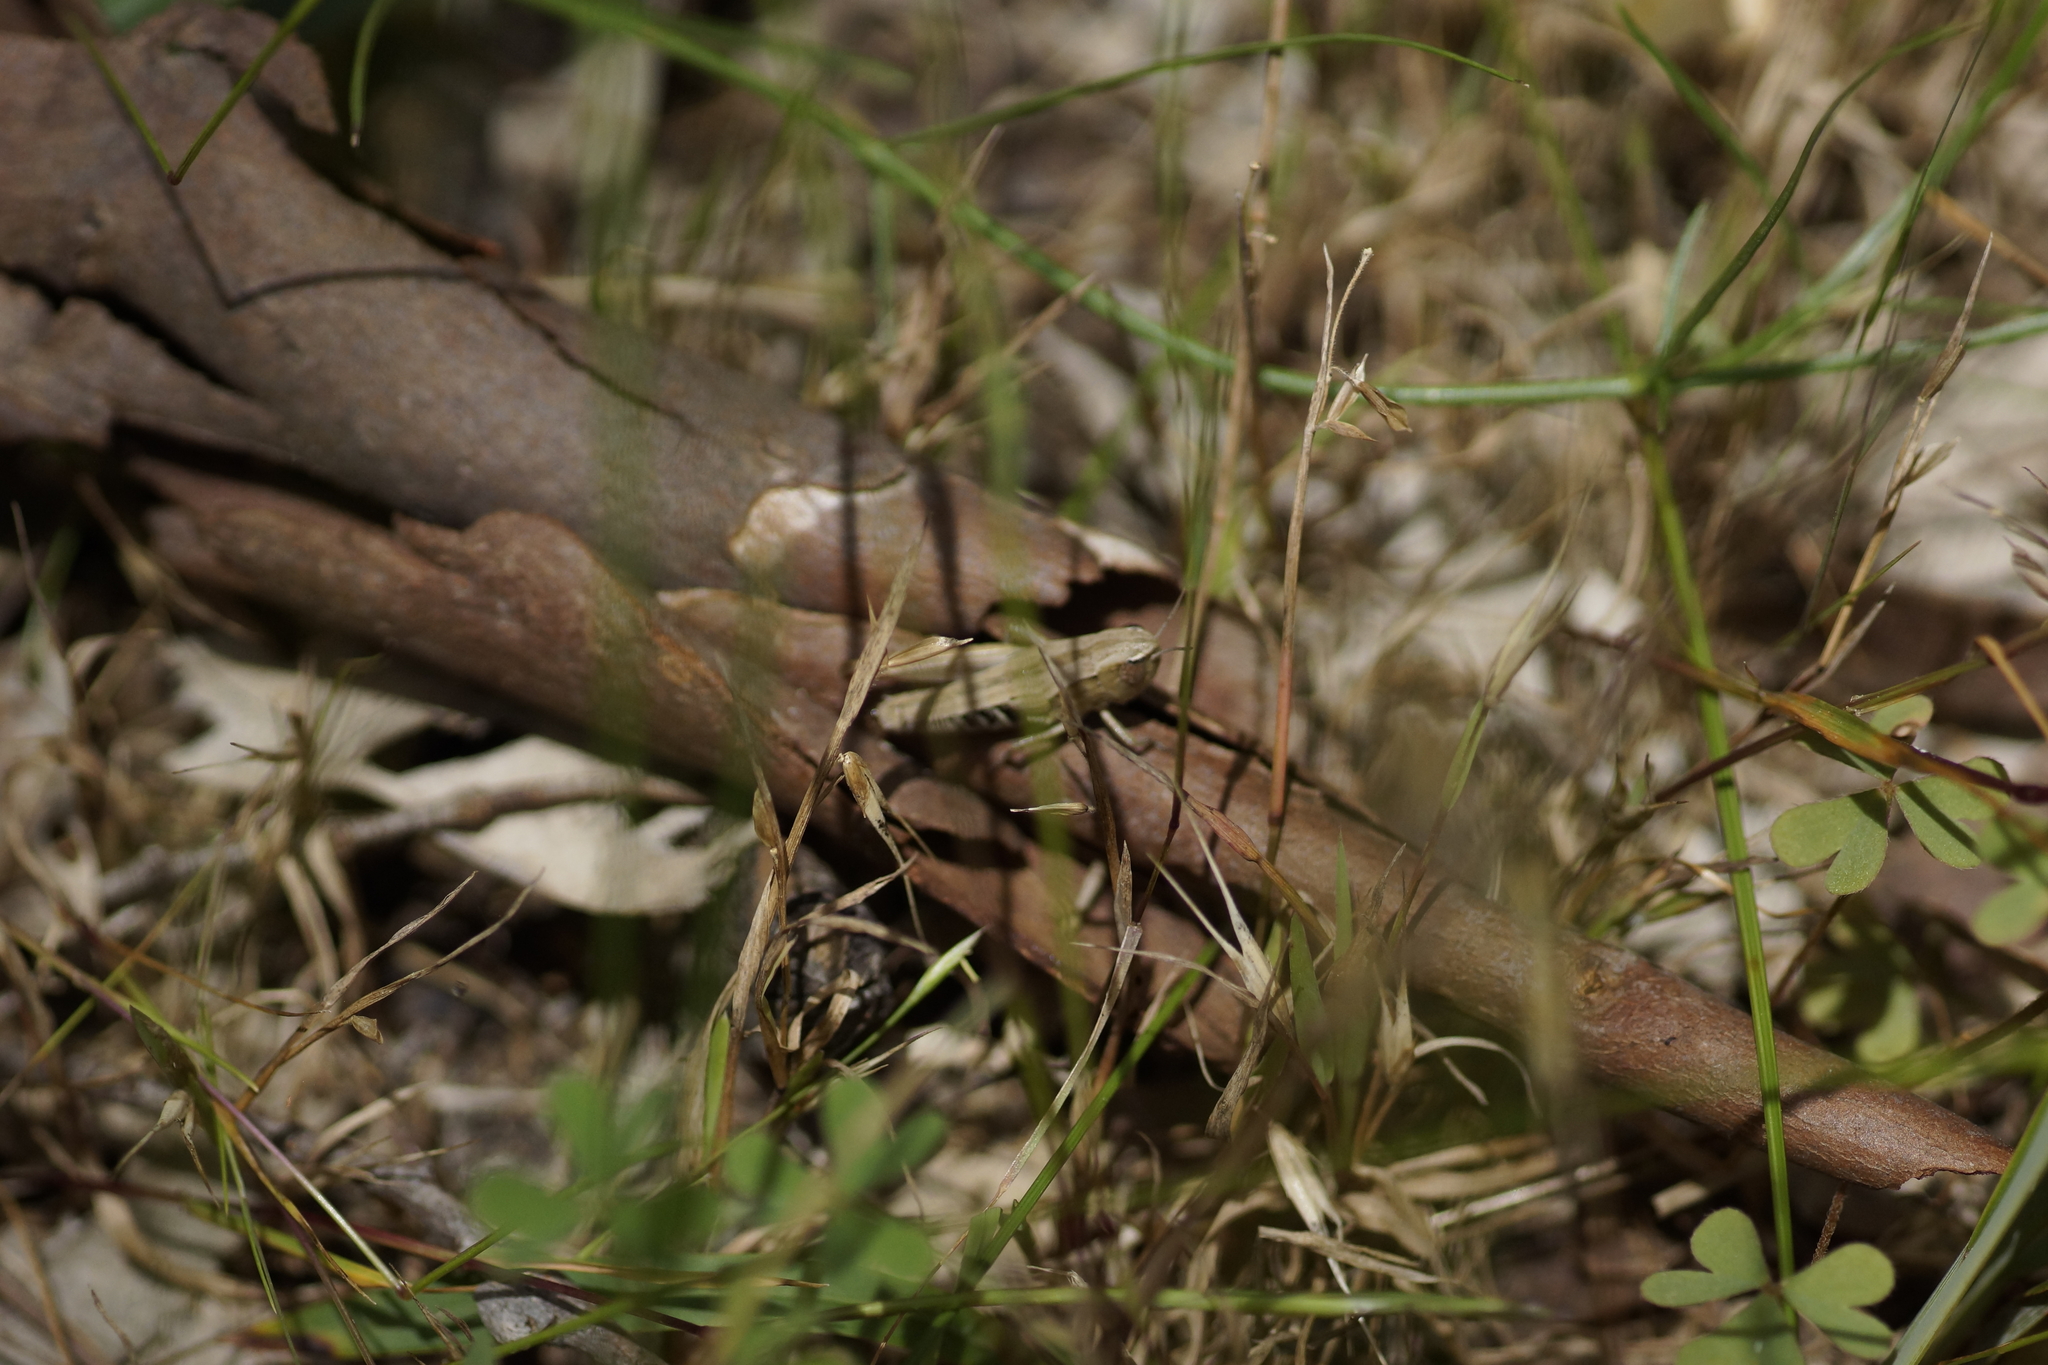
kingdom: Animalia
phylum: Arthropoda
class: Insecta
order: Orthoptera
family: Acrididae
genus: Praxibulus
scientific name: Praxibulus duplex
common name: Common praxibulus
